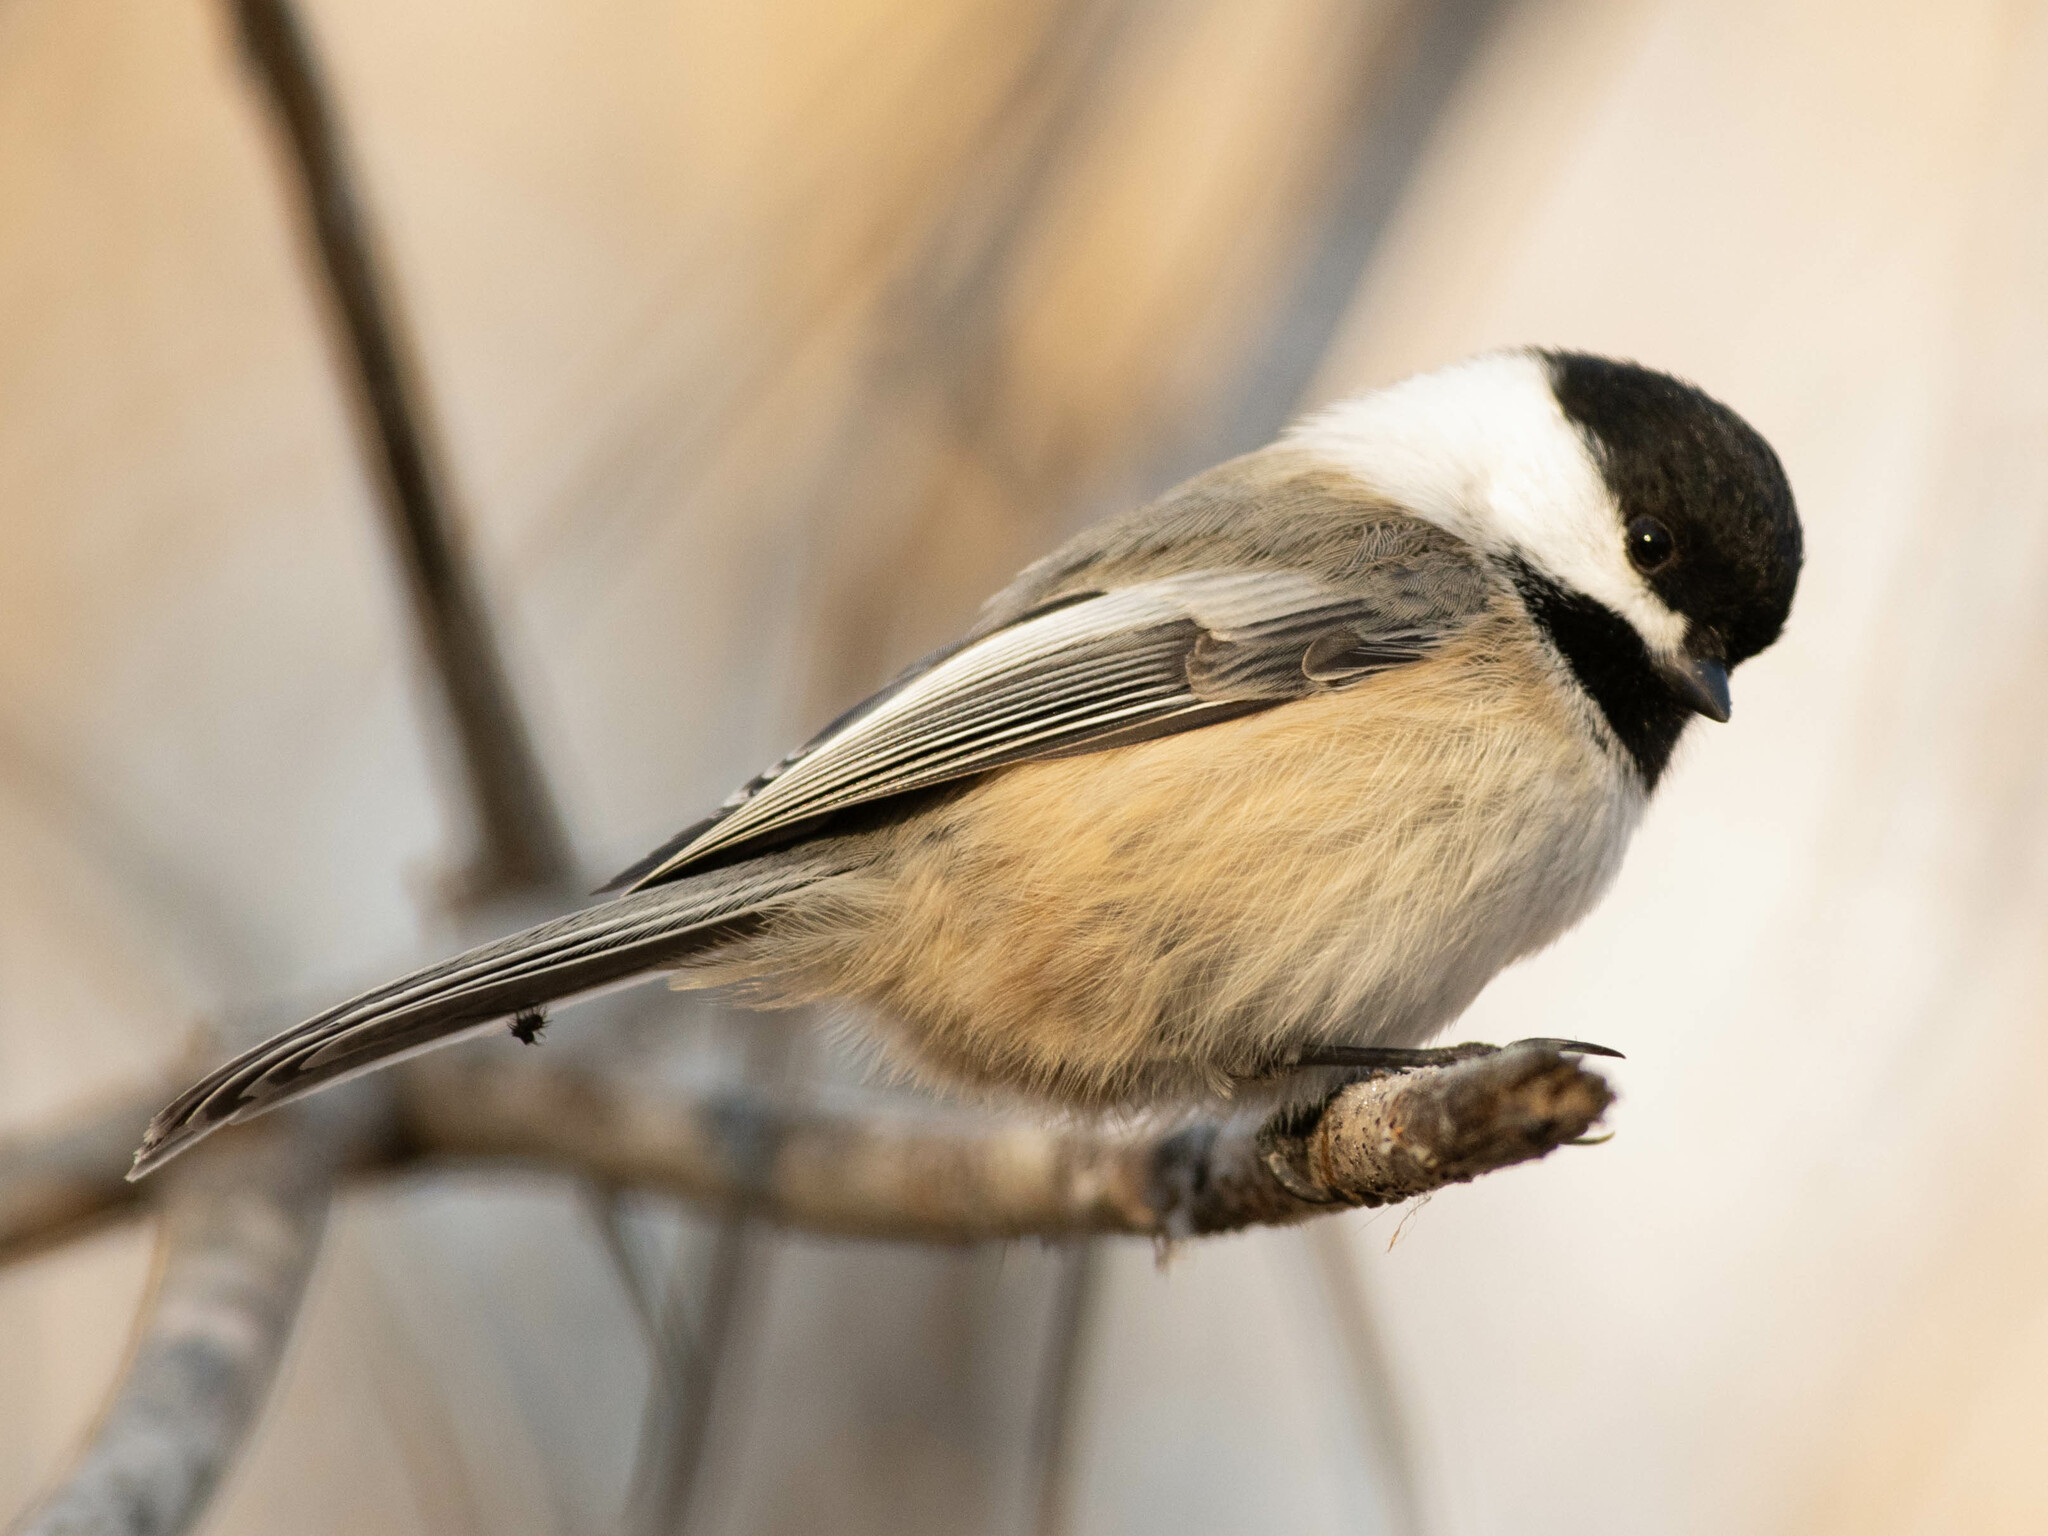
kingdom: Animalia
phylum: Chordata
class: Aves
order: Passeriformes
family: Paridae
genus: Poecile
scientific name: Poecile atricapillus
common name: Black-capped chickadee
